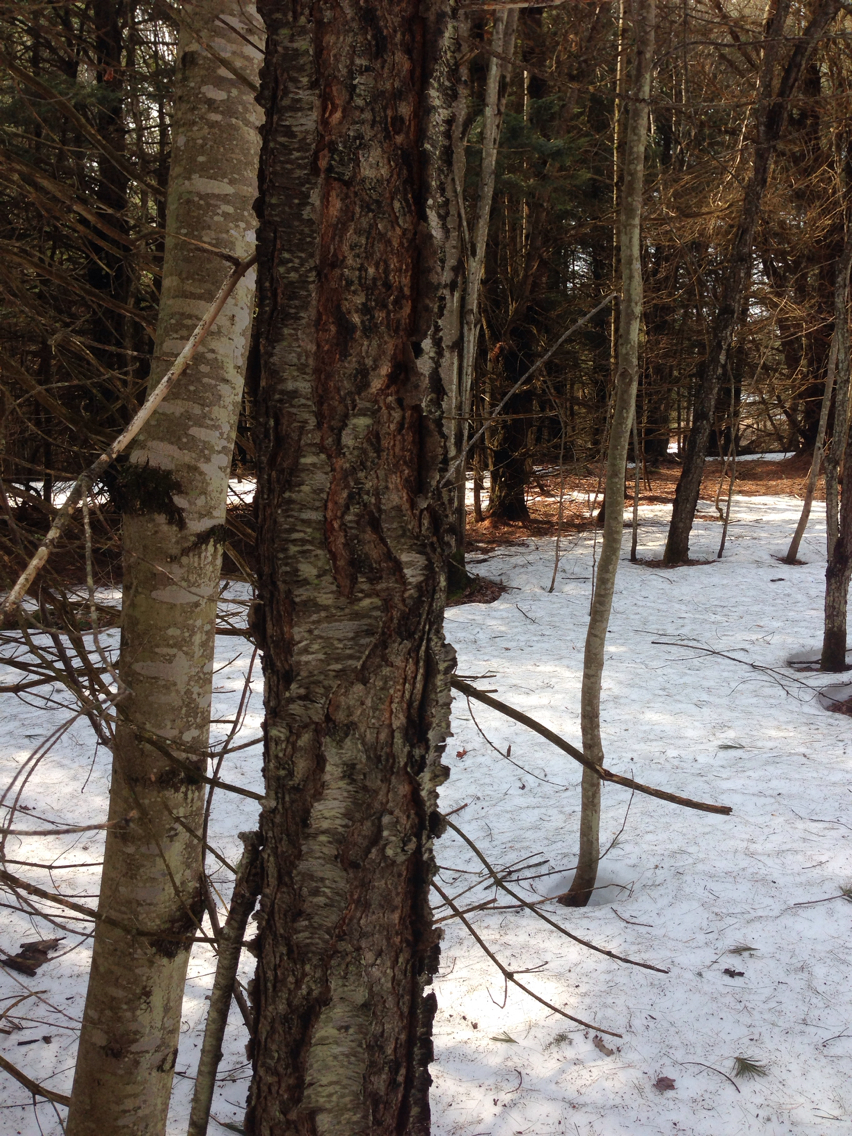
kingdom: Plantae
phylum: Tracheophyta
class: Magnoliopsida
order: Rosales
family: Rosaceae
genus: Prunus
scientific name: Prunus serotina
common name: Black cherry
